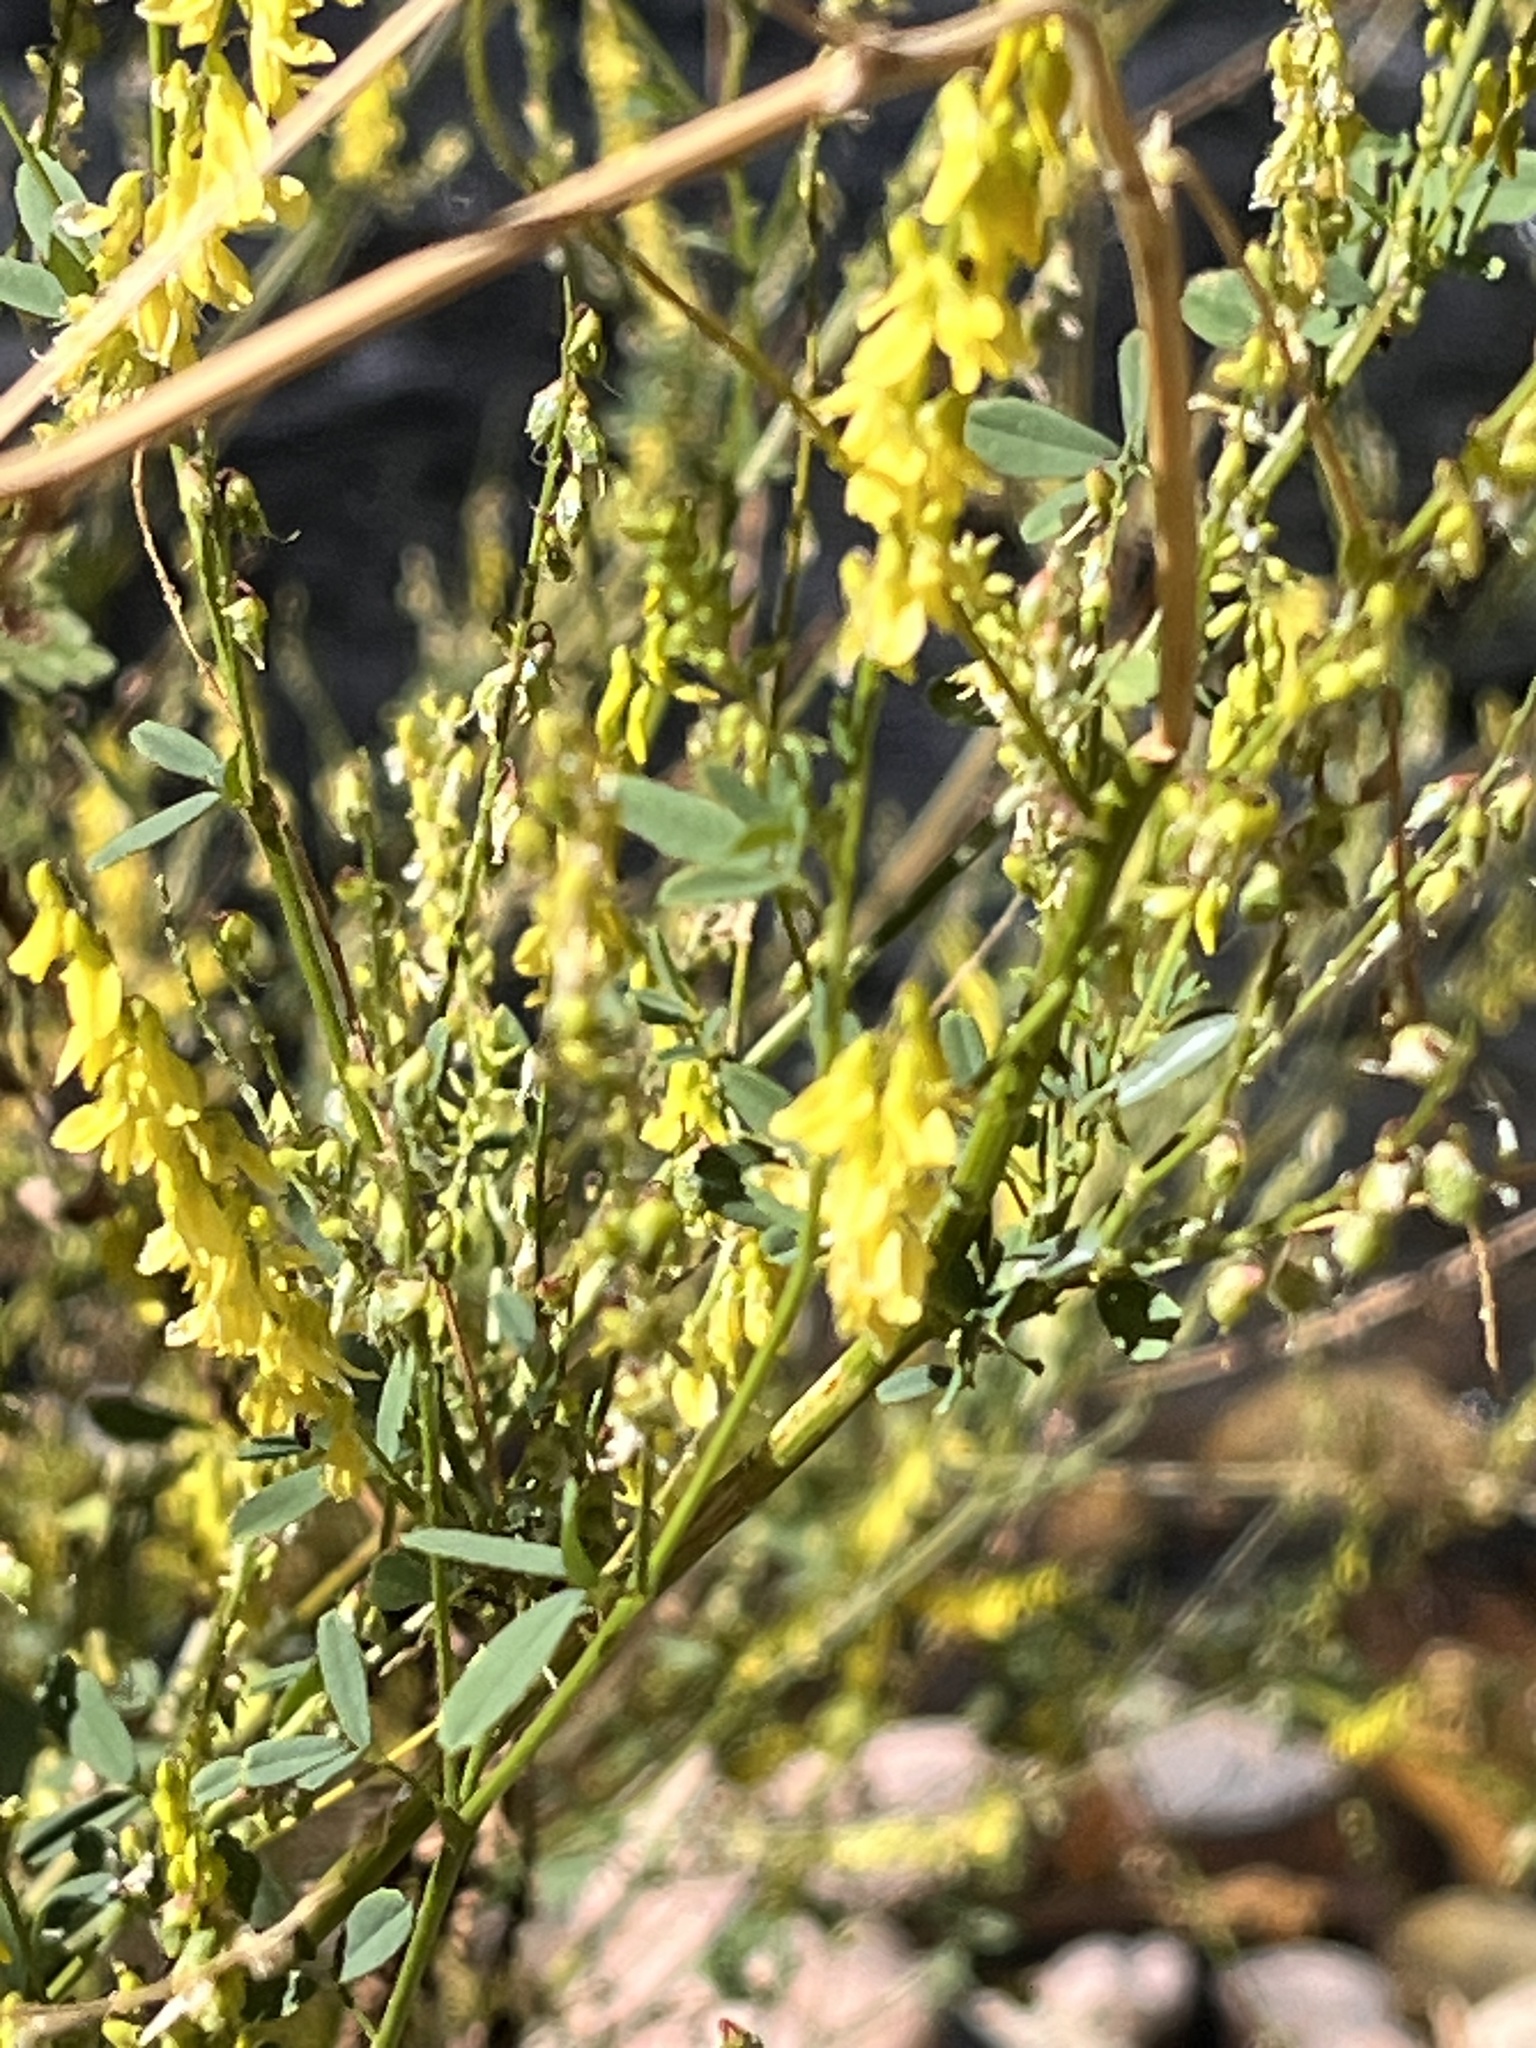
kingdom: Plantae
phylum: Tracheophyta
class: Magnoliopsida
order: Fabales
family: Fabaceae
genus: Melilotus
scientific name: Melilotus officinalis
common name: Sweetclover
